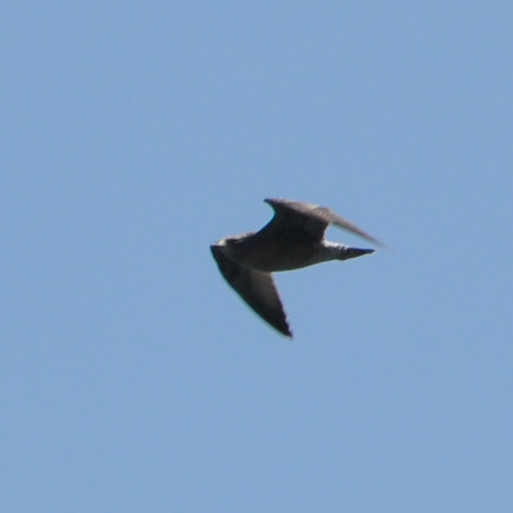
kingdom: Animalia
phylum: Chordata
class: Aves
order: Charadriiformes
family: Laridae
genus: Larus
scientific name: Larus californicus
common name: California gull
